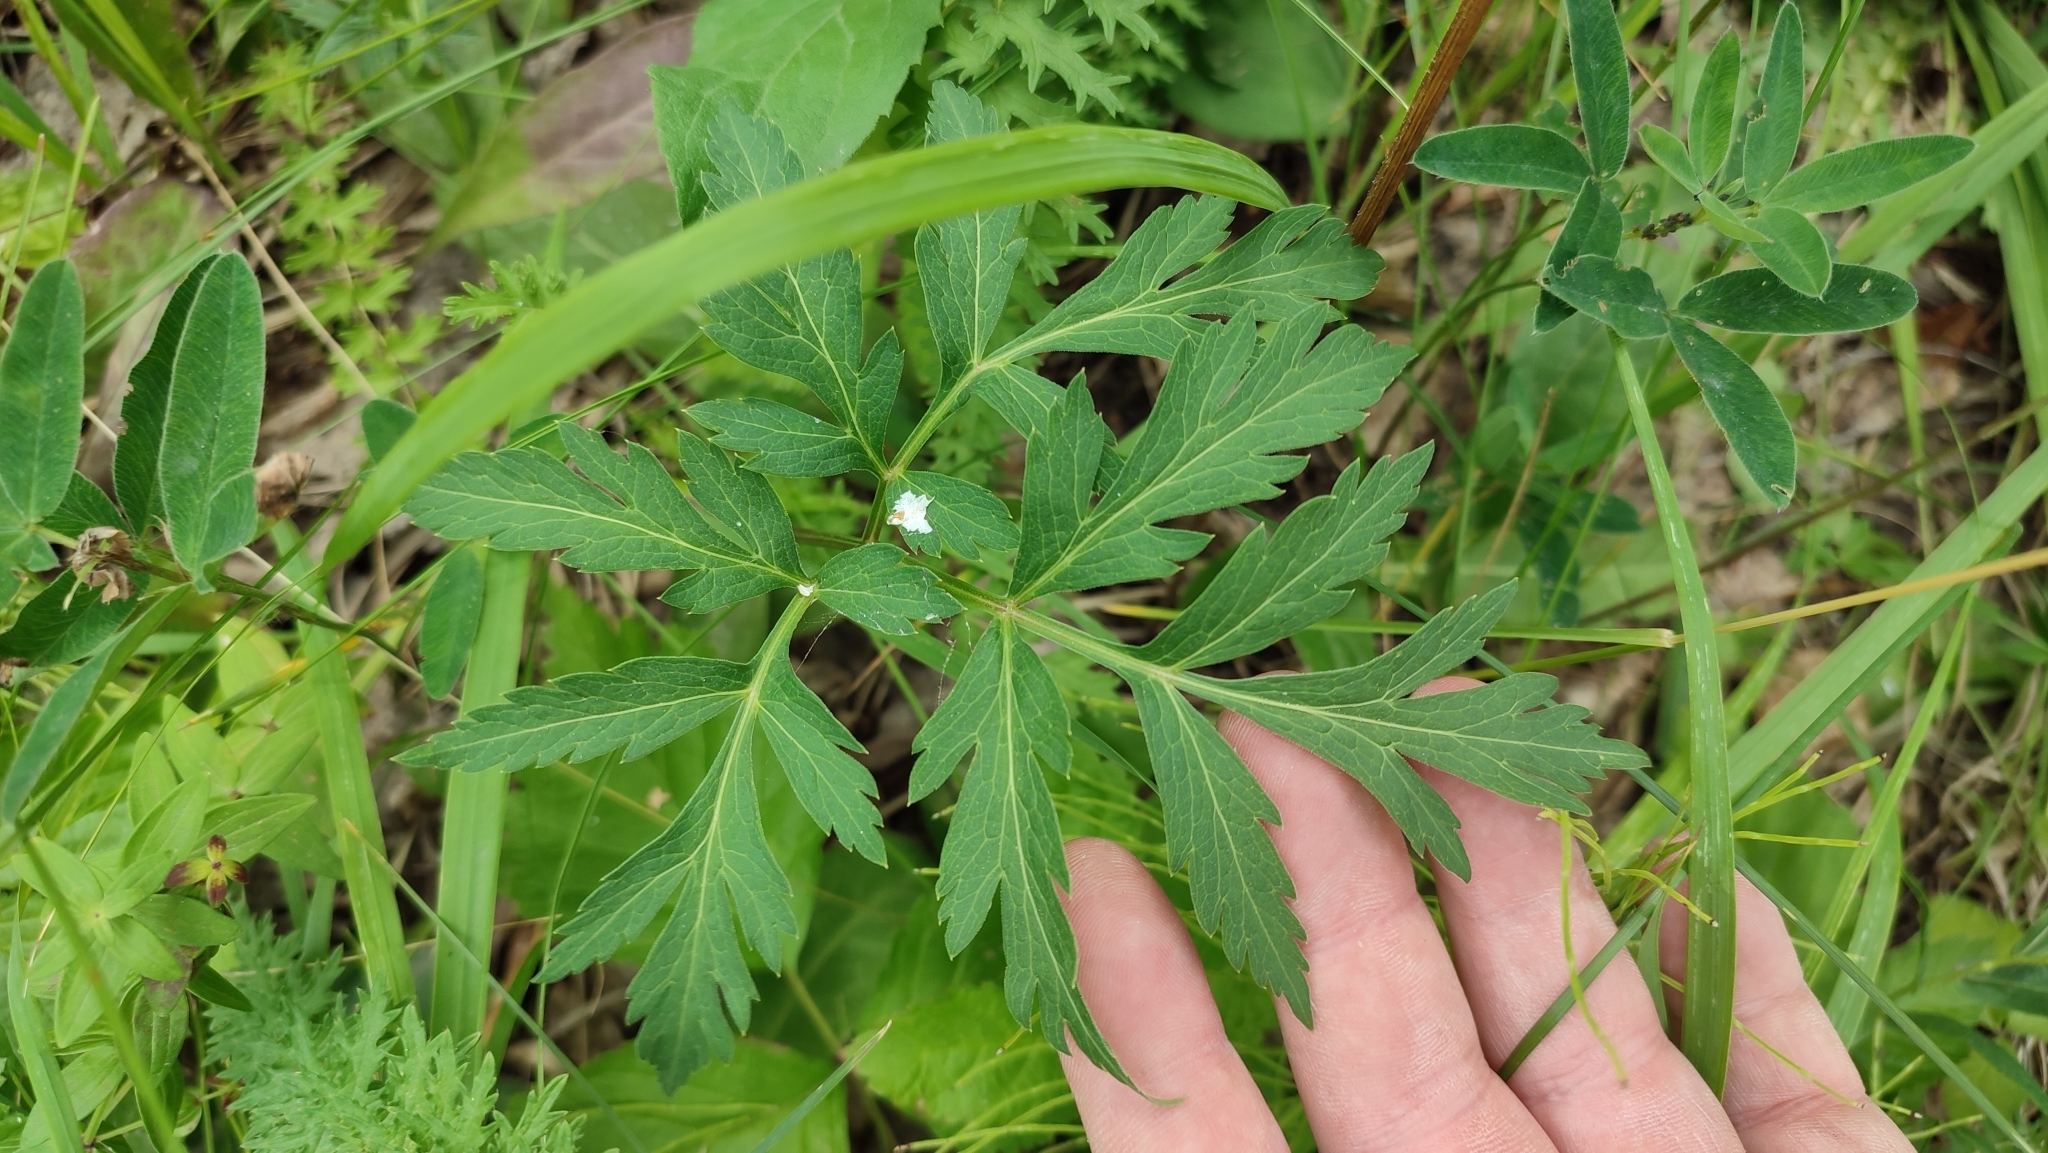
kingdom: Plantae
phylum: Tracheophyta
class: Magnoliopsida
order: Apiales
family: Apiaceae
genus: Pleurospermum
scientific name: Pleurospermum uralense
